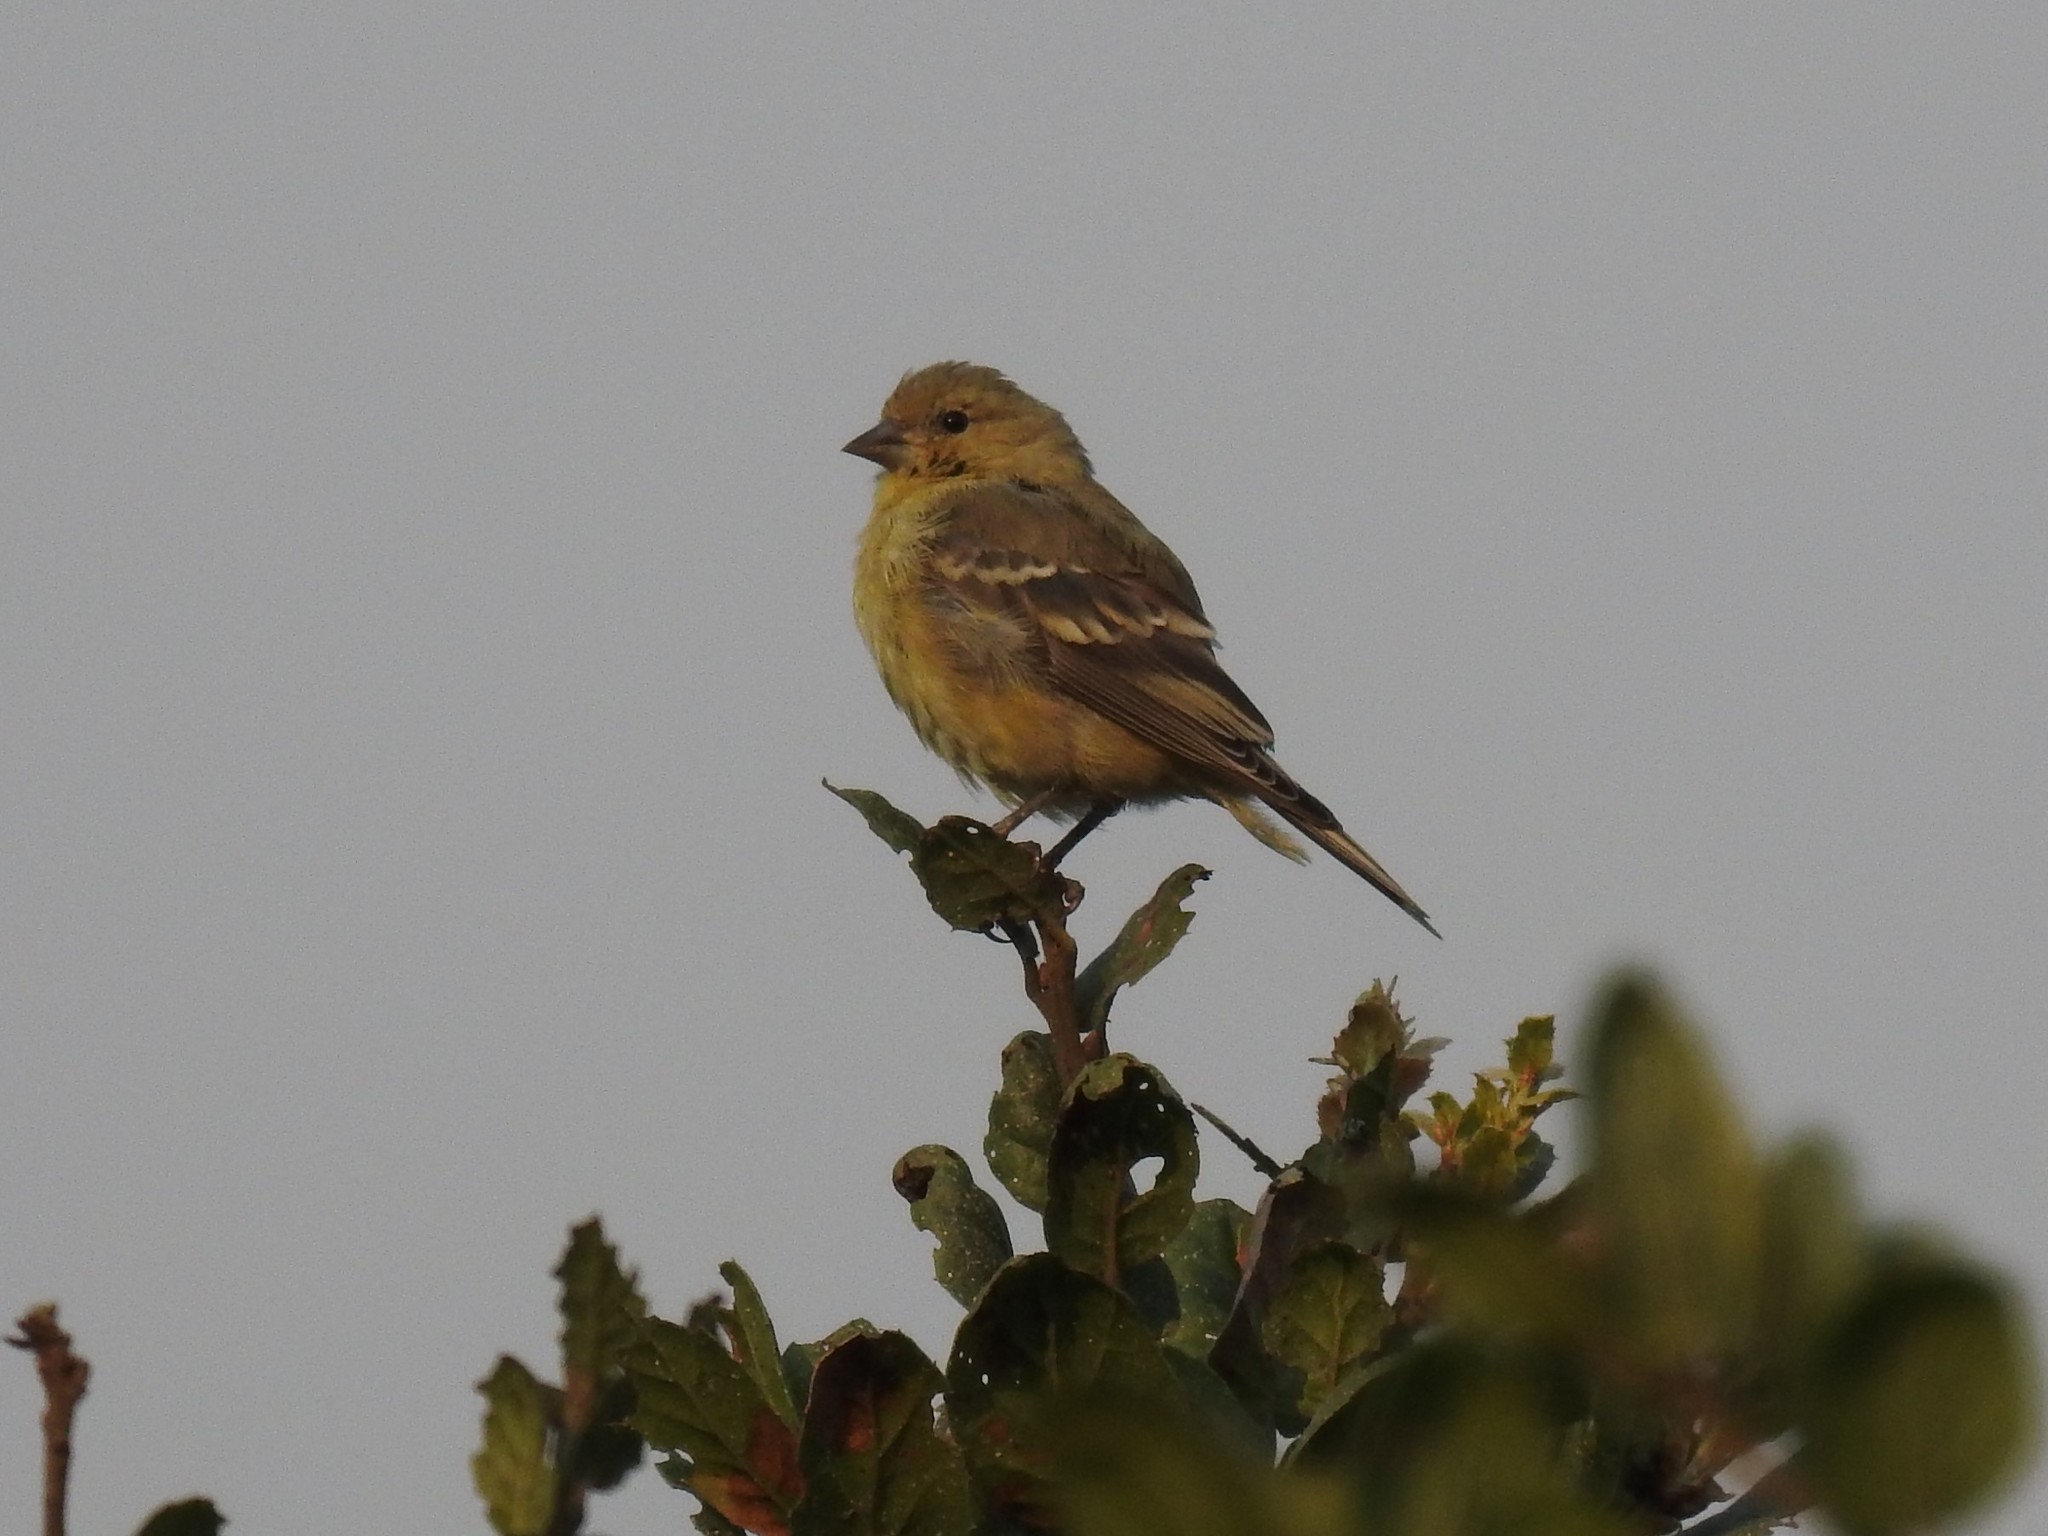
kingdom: Animalia
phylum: Chordata
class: Aves
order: Passeriformes
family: Fringillidae
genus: Spinus
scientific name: Spinus psaltria
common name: Lesser goldfinch
